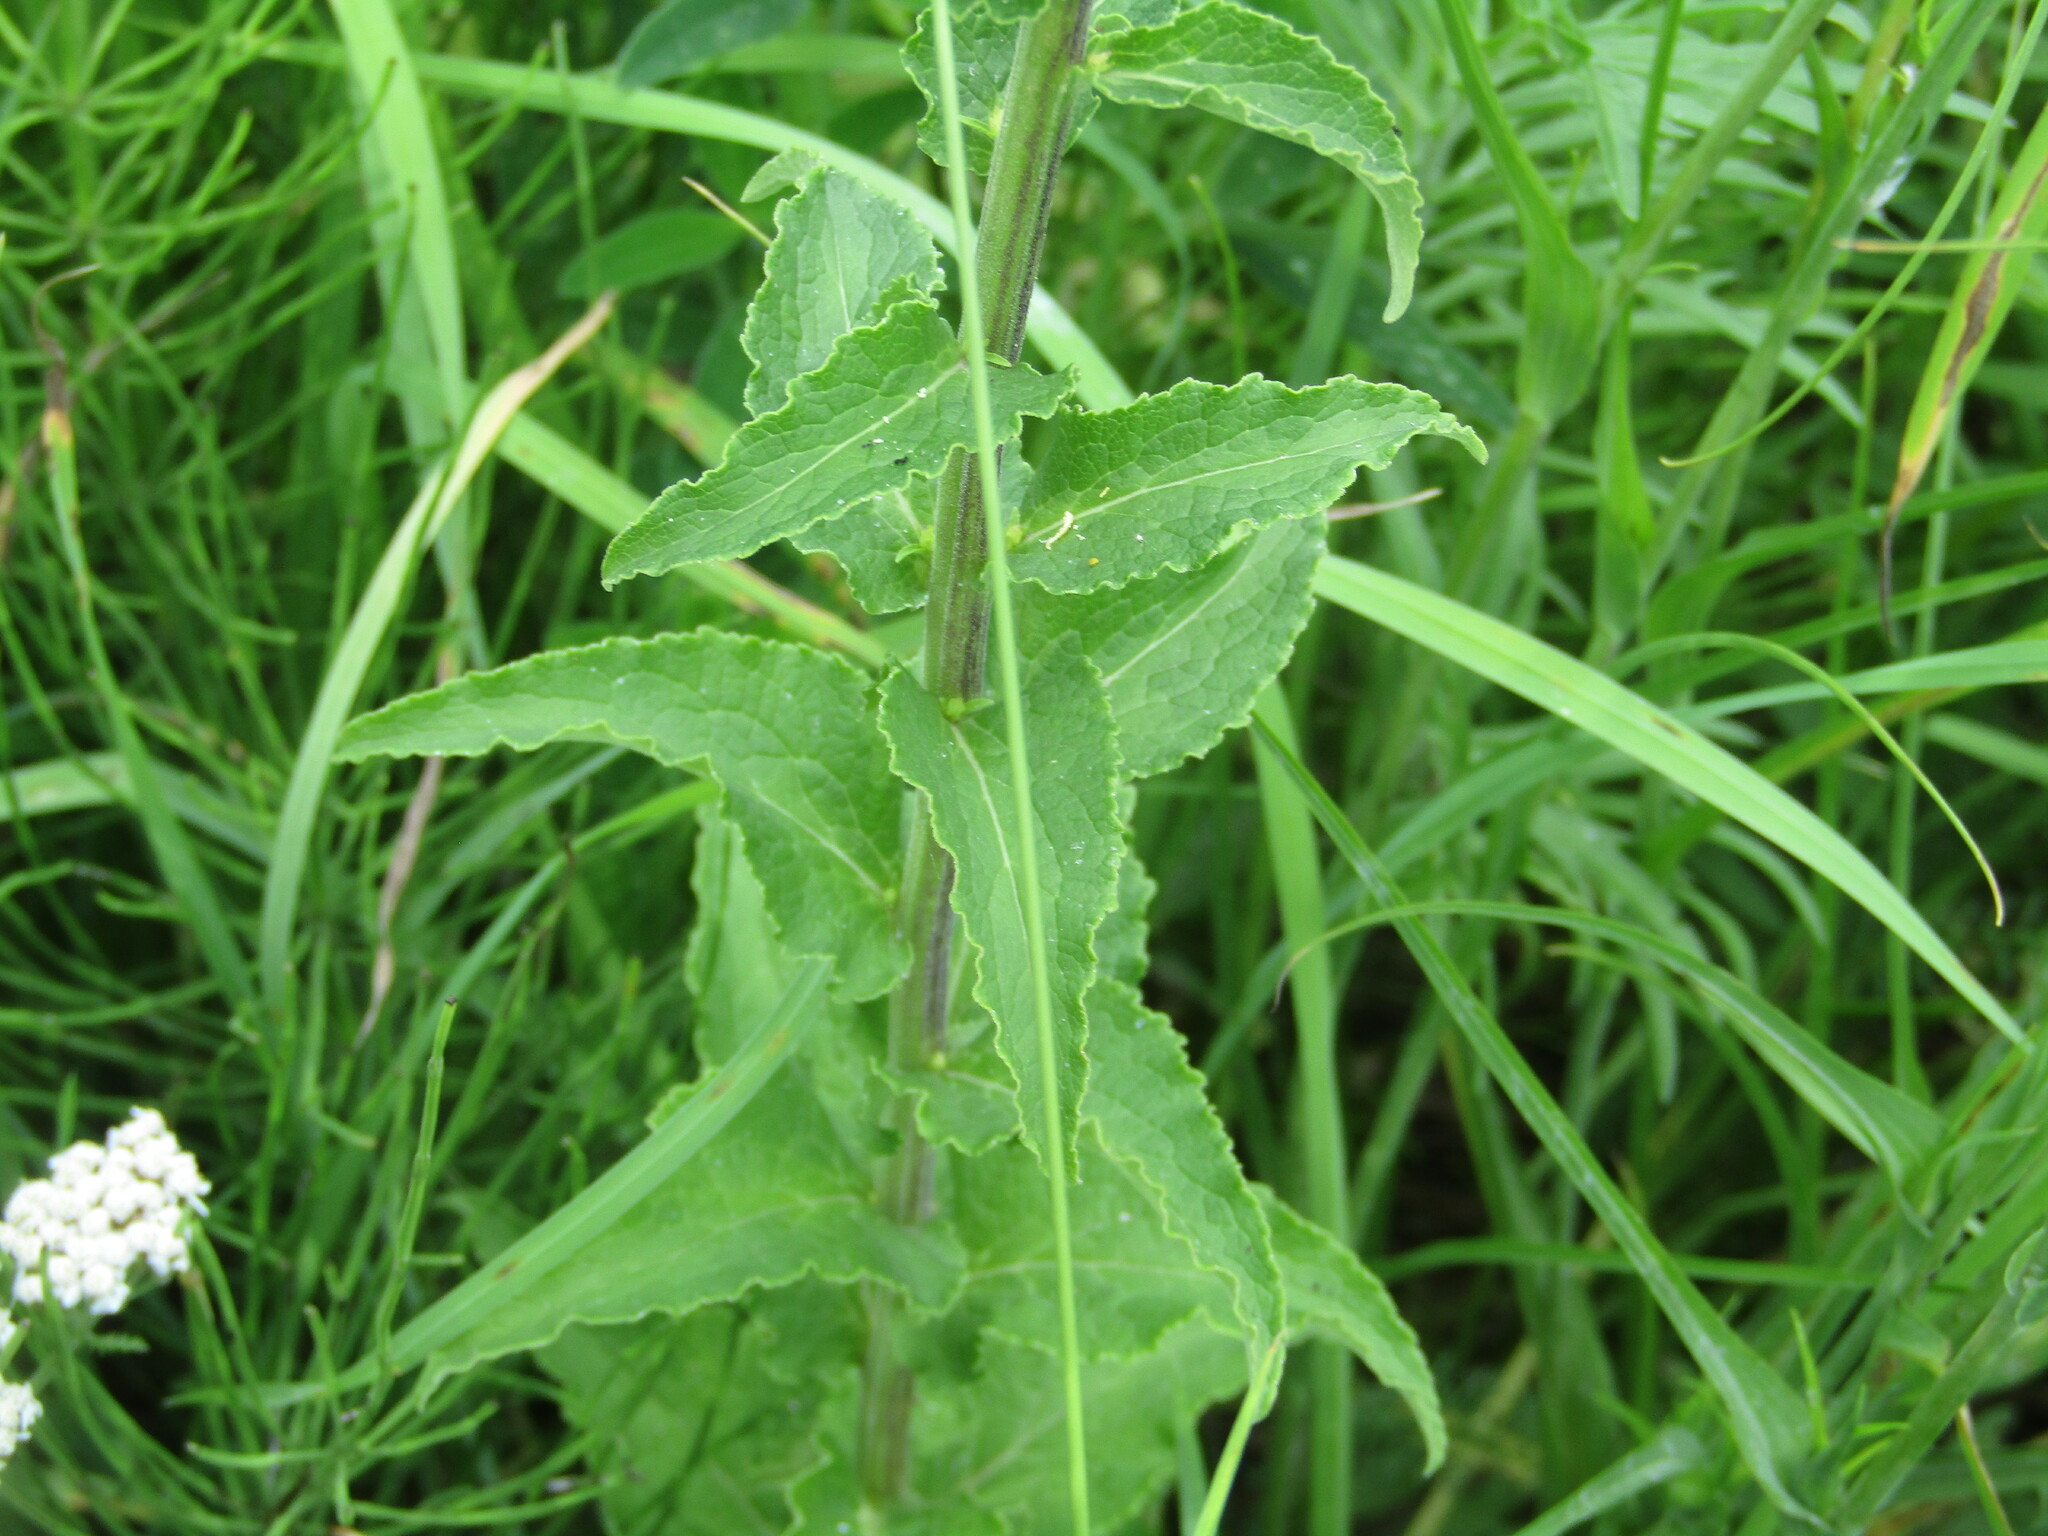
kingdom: Plantae
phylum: Tracheophyta
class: Magnoliopsida
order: Asterales
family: Campanulaceae
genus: Campanula
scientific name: Campanula bononiensis
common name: Pale bellflower
